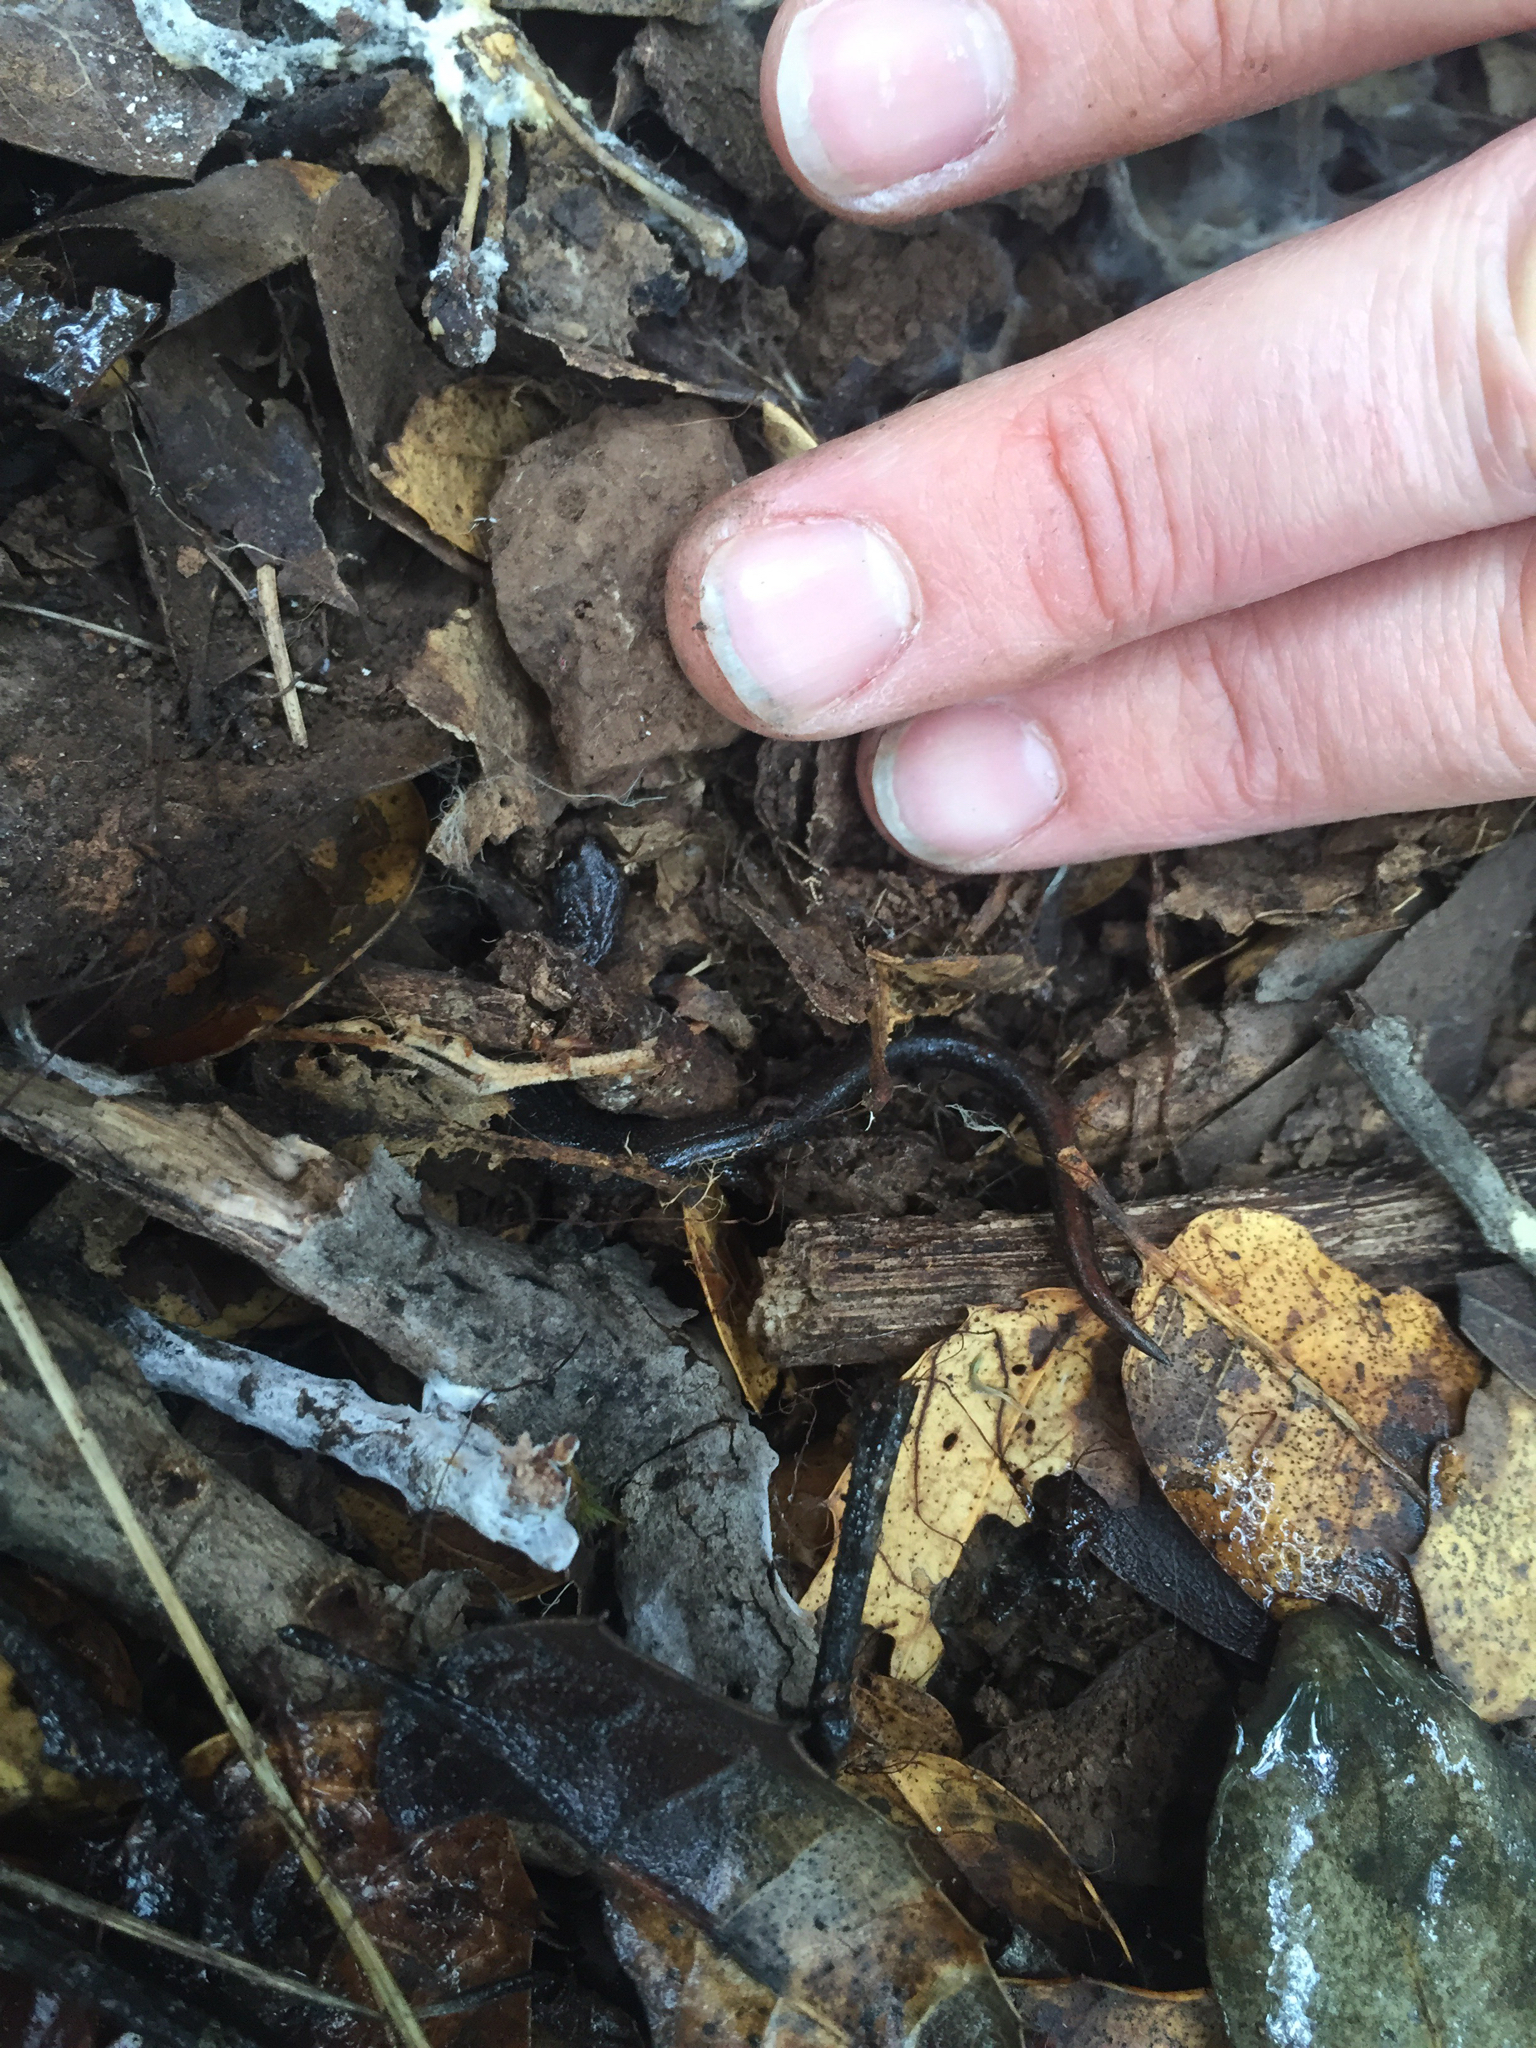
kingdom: Animalia
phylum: Chordata
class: Amphibia
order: Caudata
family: Plethodontidae
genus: Batrachoseps
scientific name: Batrachoseps attenuatus
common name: California slender salamander
